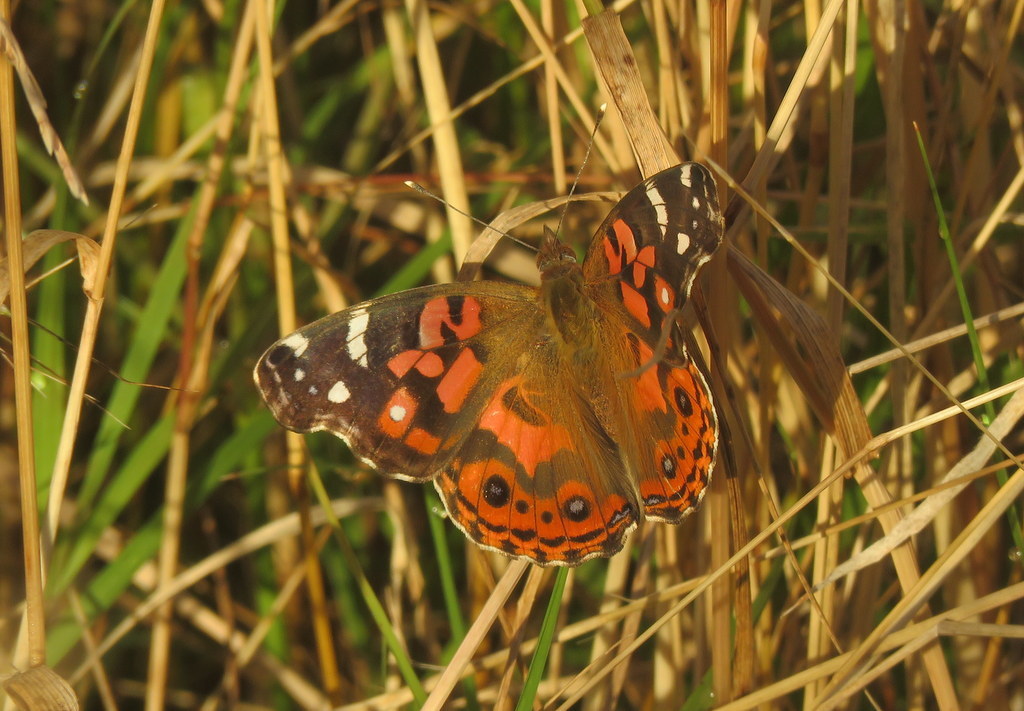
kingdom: Animalia
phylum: Arthropoda
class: Insecta
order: Lepidoptera
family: Nymphalidae
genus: Vanessa
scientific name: Vanessa braziliensis
